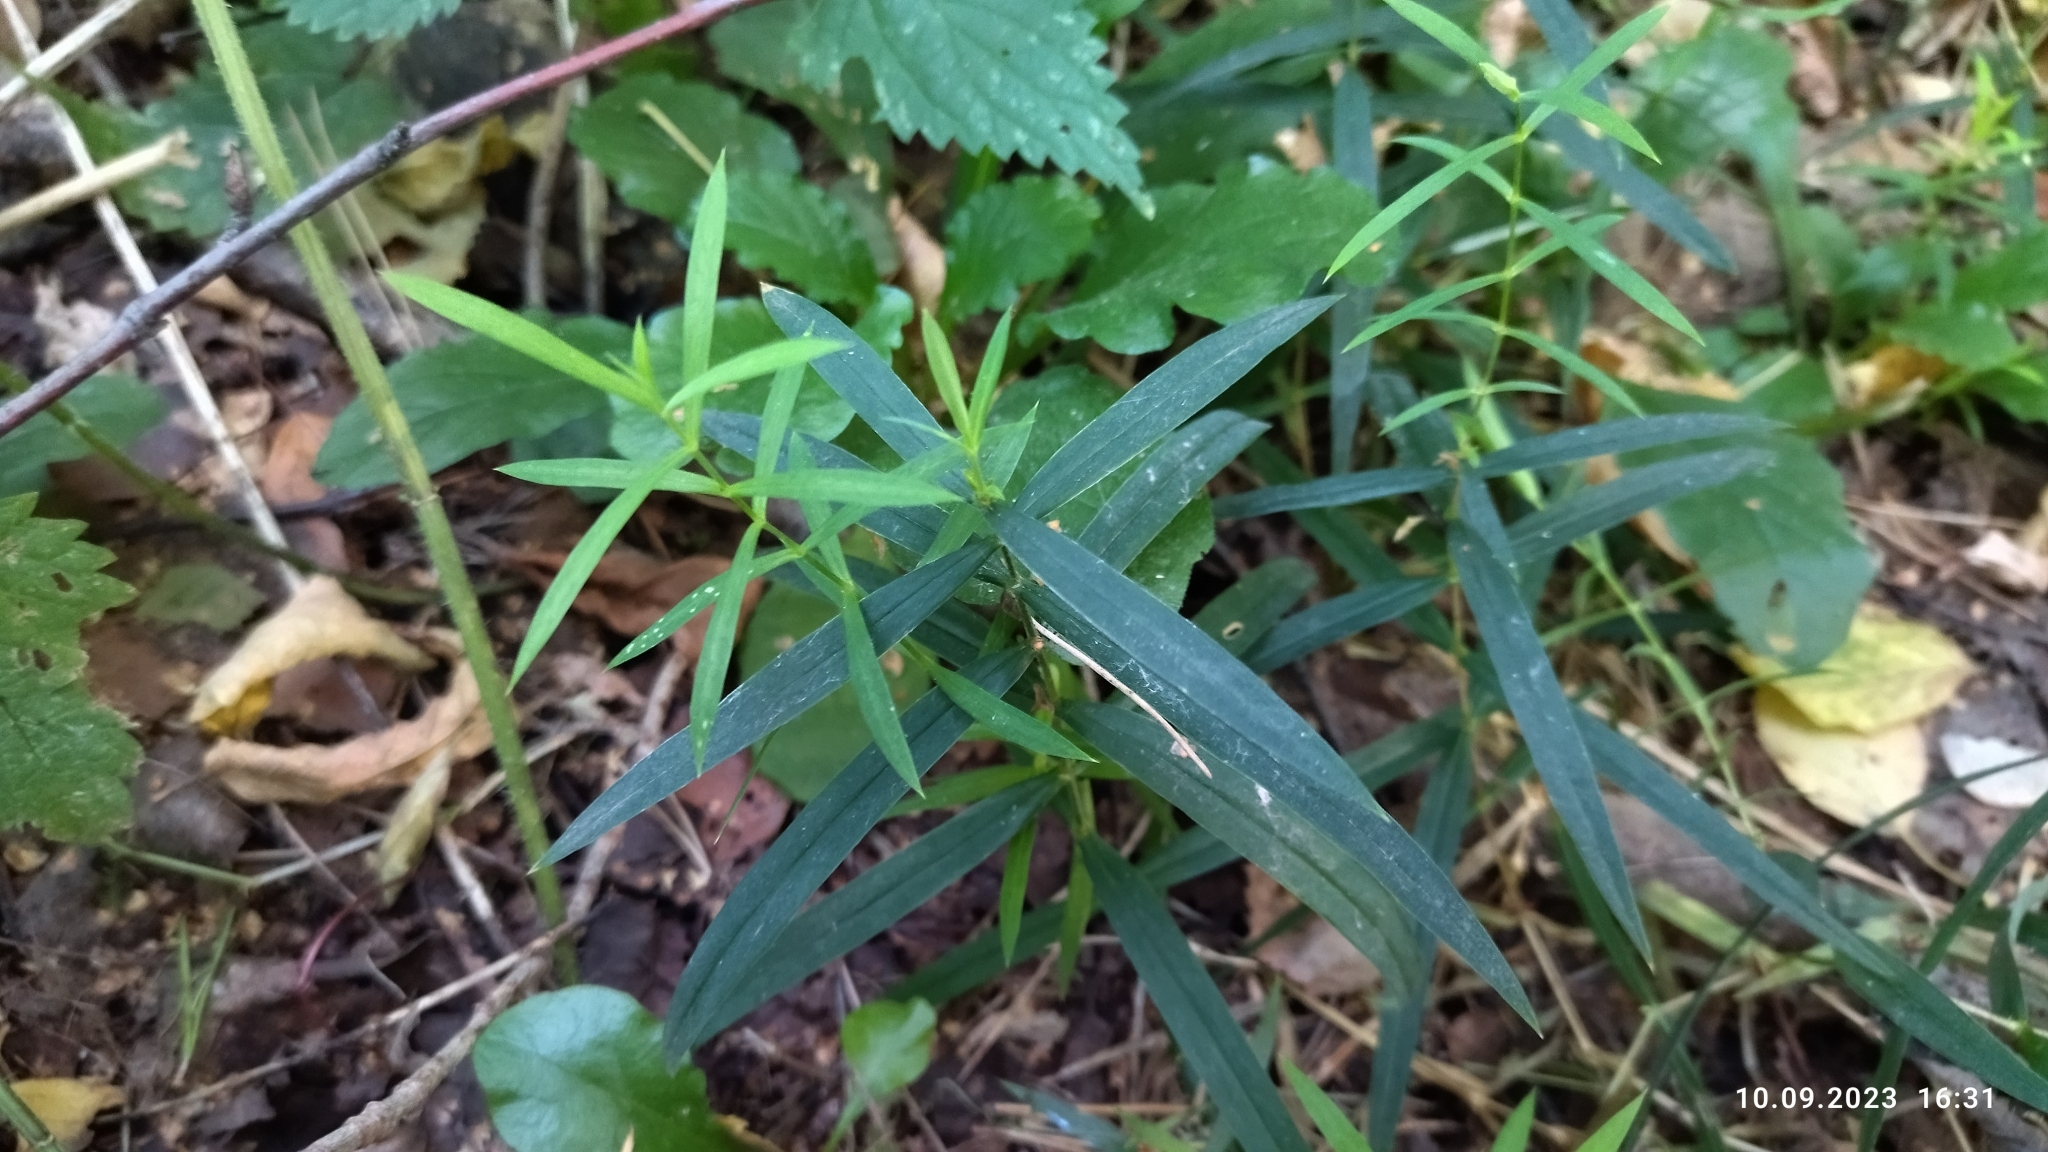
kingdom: Plantae
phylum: Tracheophyta
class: Magnoliopsida
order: Caryophyllales
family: Caryophyllaceae
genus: Rabelera
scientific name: Rabelera holostea
